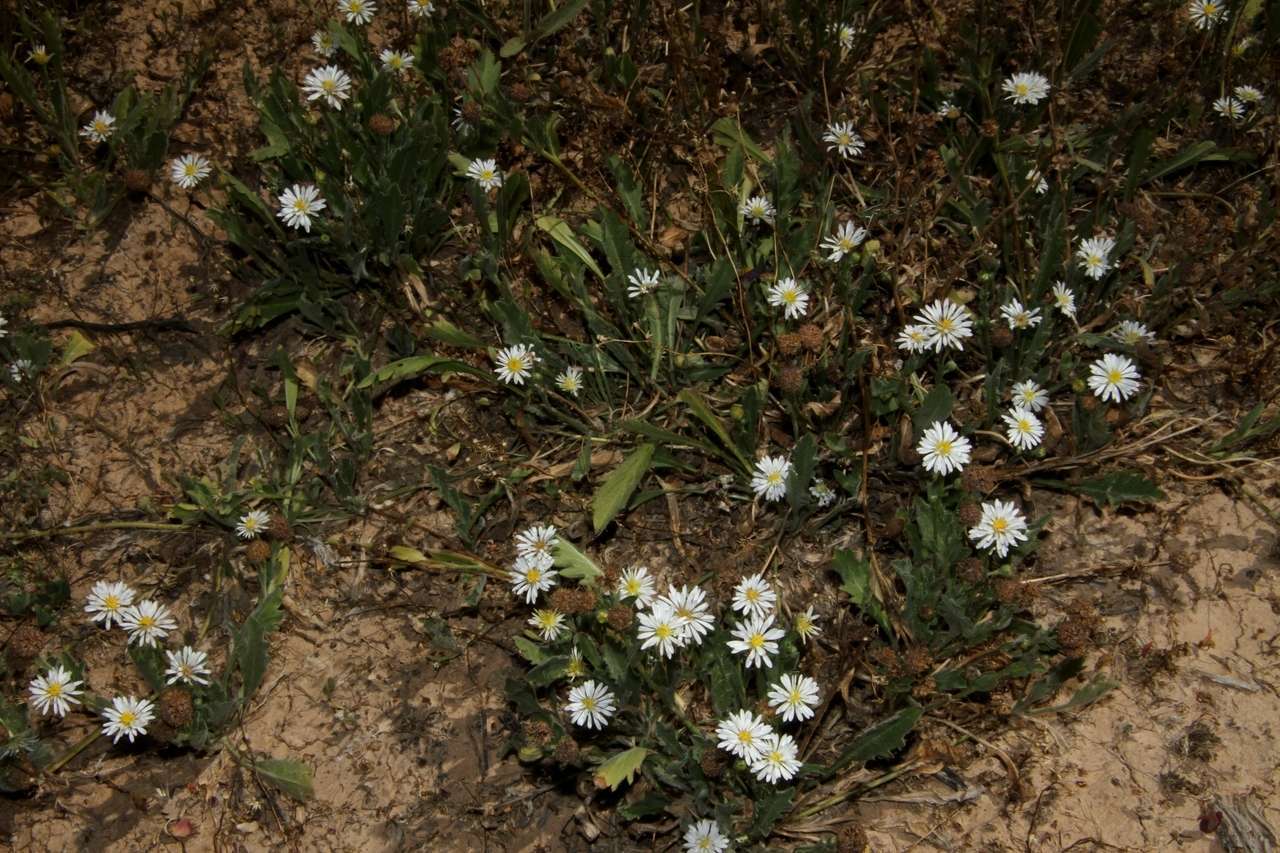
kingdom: Plantae
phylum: Tracheophyta
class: Magnoliopsida
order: Asterales
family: Asteraceae
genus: Calotis
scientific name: Calotis scabiosifolia
